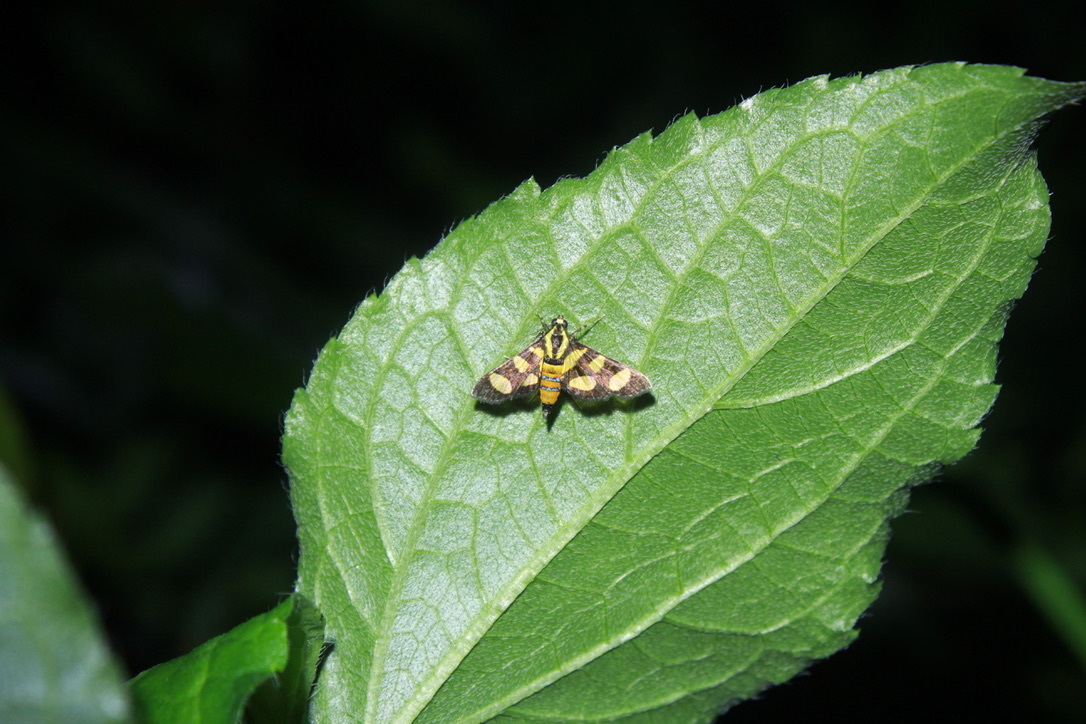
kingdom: Animalia
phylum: Arthropoda
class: Insecta
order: Lepidoptera
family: Crambidae
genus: Syngamia
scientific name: Syngamia florella
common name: Orange-spotted flower moth
